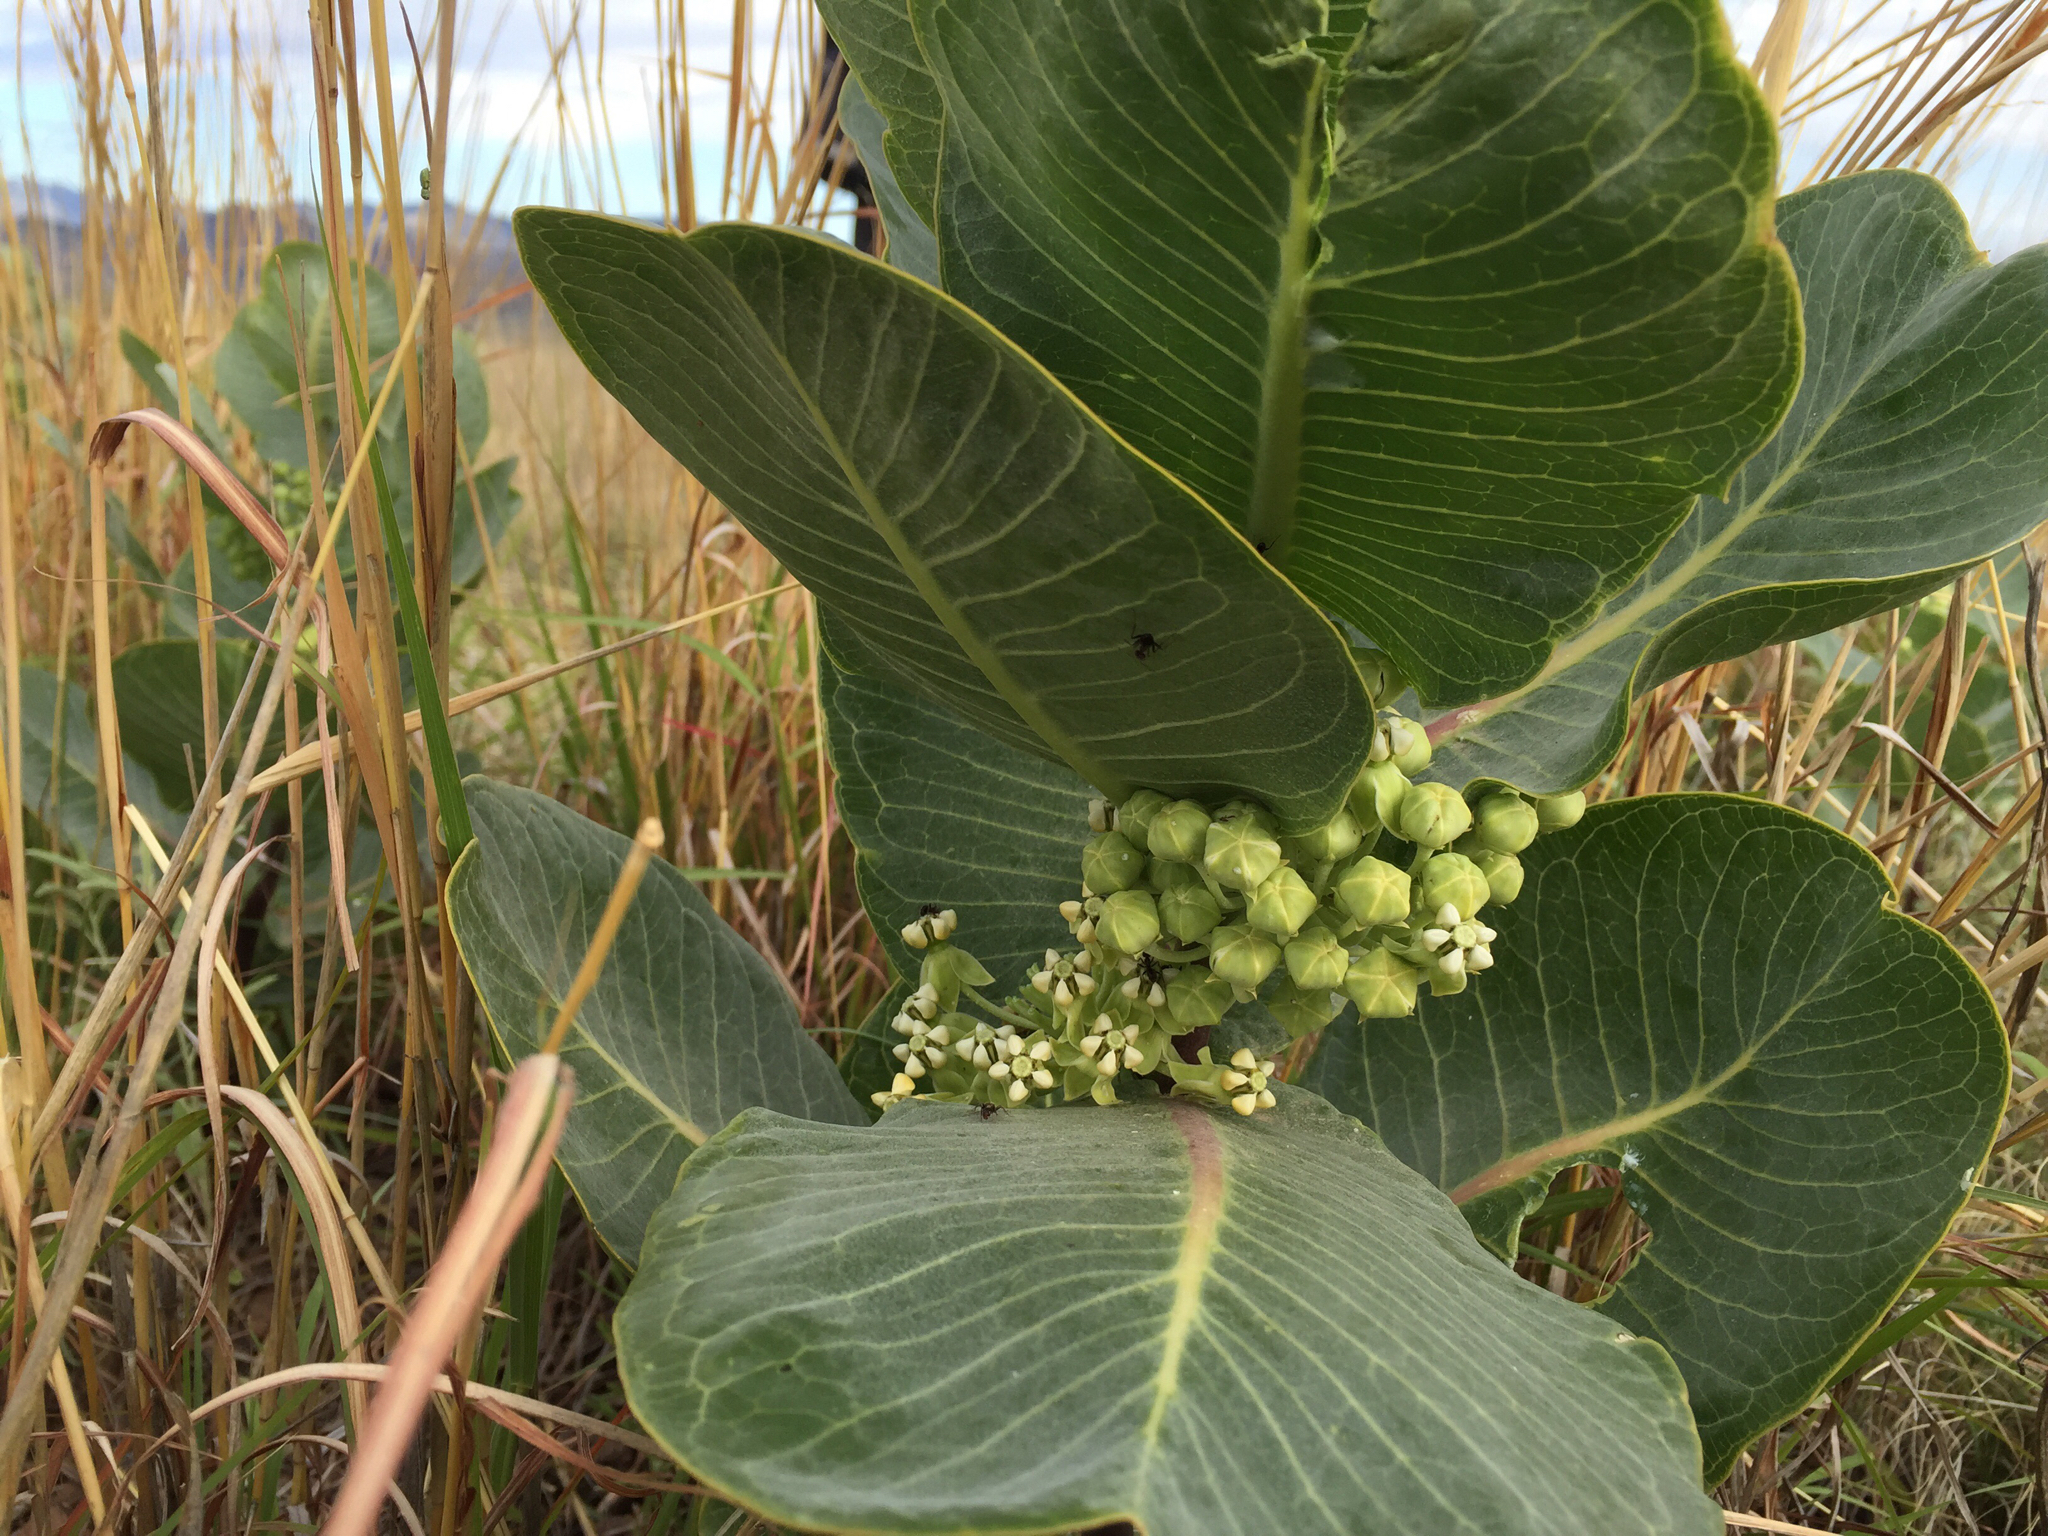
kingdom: Plantae
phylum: Tracheophyta
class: Magnoliopsida
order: Gentianales
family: Apocynaceae
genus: Asclepias
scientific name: Asclepias latifolia
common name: Broadleaf milkweed
